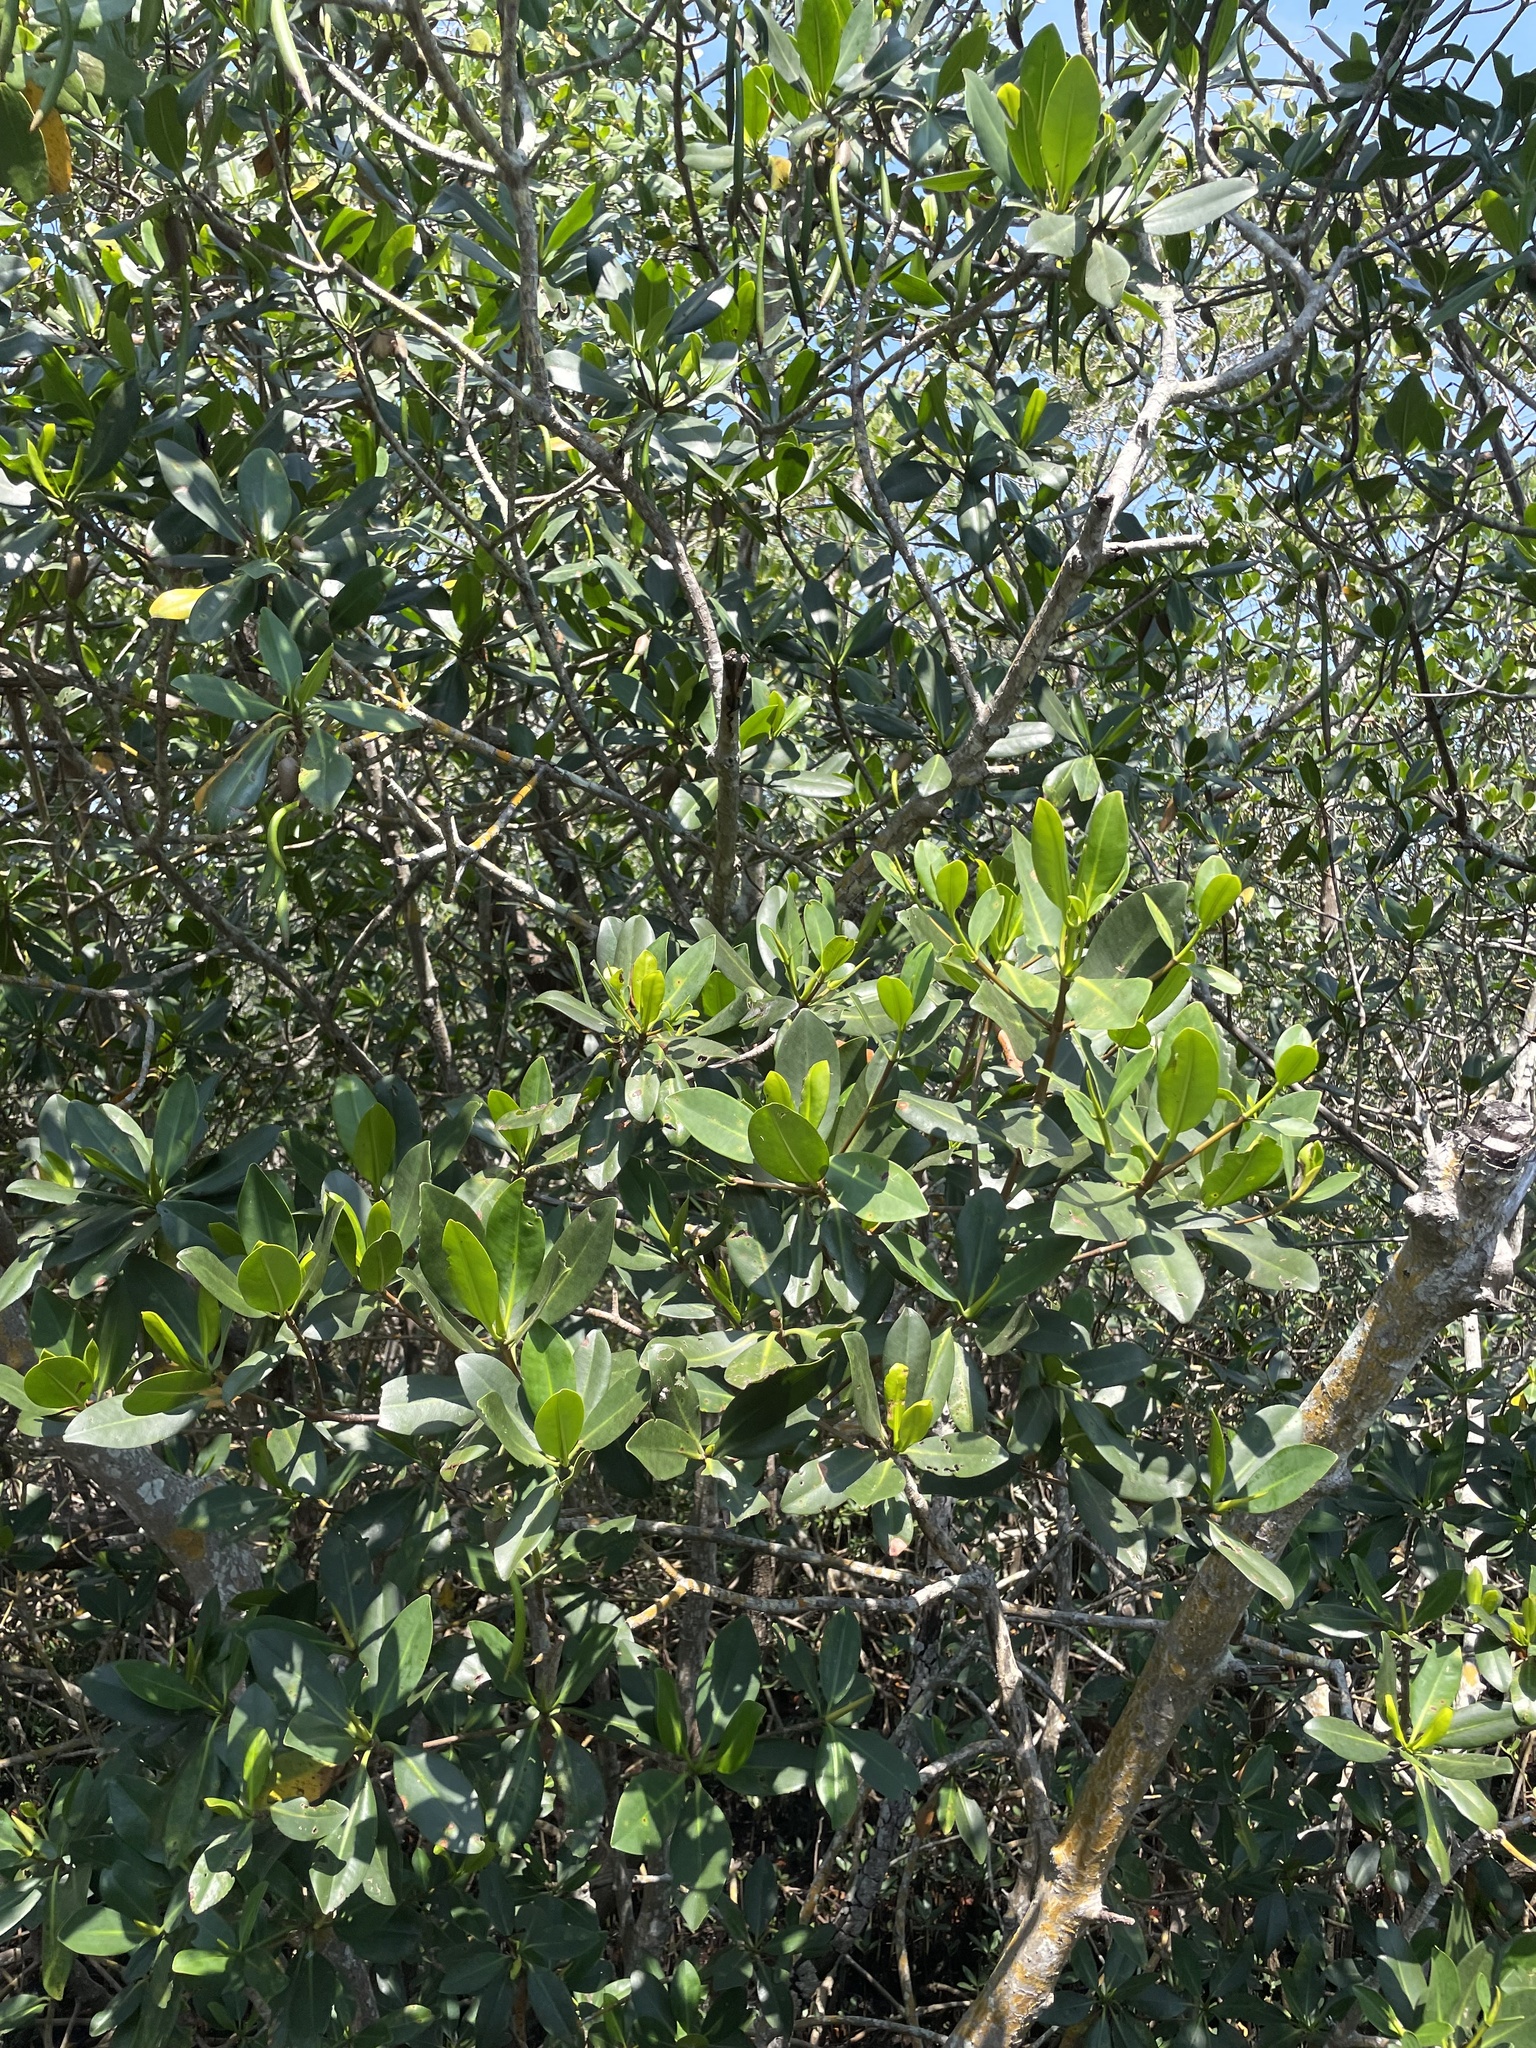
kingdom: Plantae
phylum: Tracheophyta
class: Magnoliopsida
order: Malpighiales
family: Rhizophoraceae
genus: Rhizophora
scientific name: Rhizophora mangle
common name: Red mangrove
